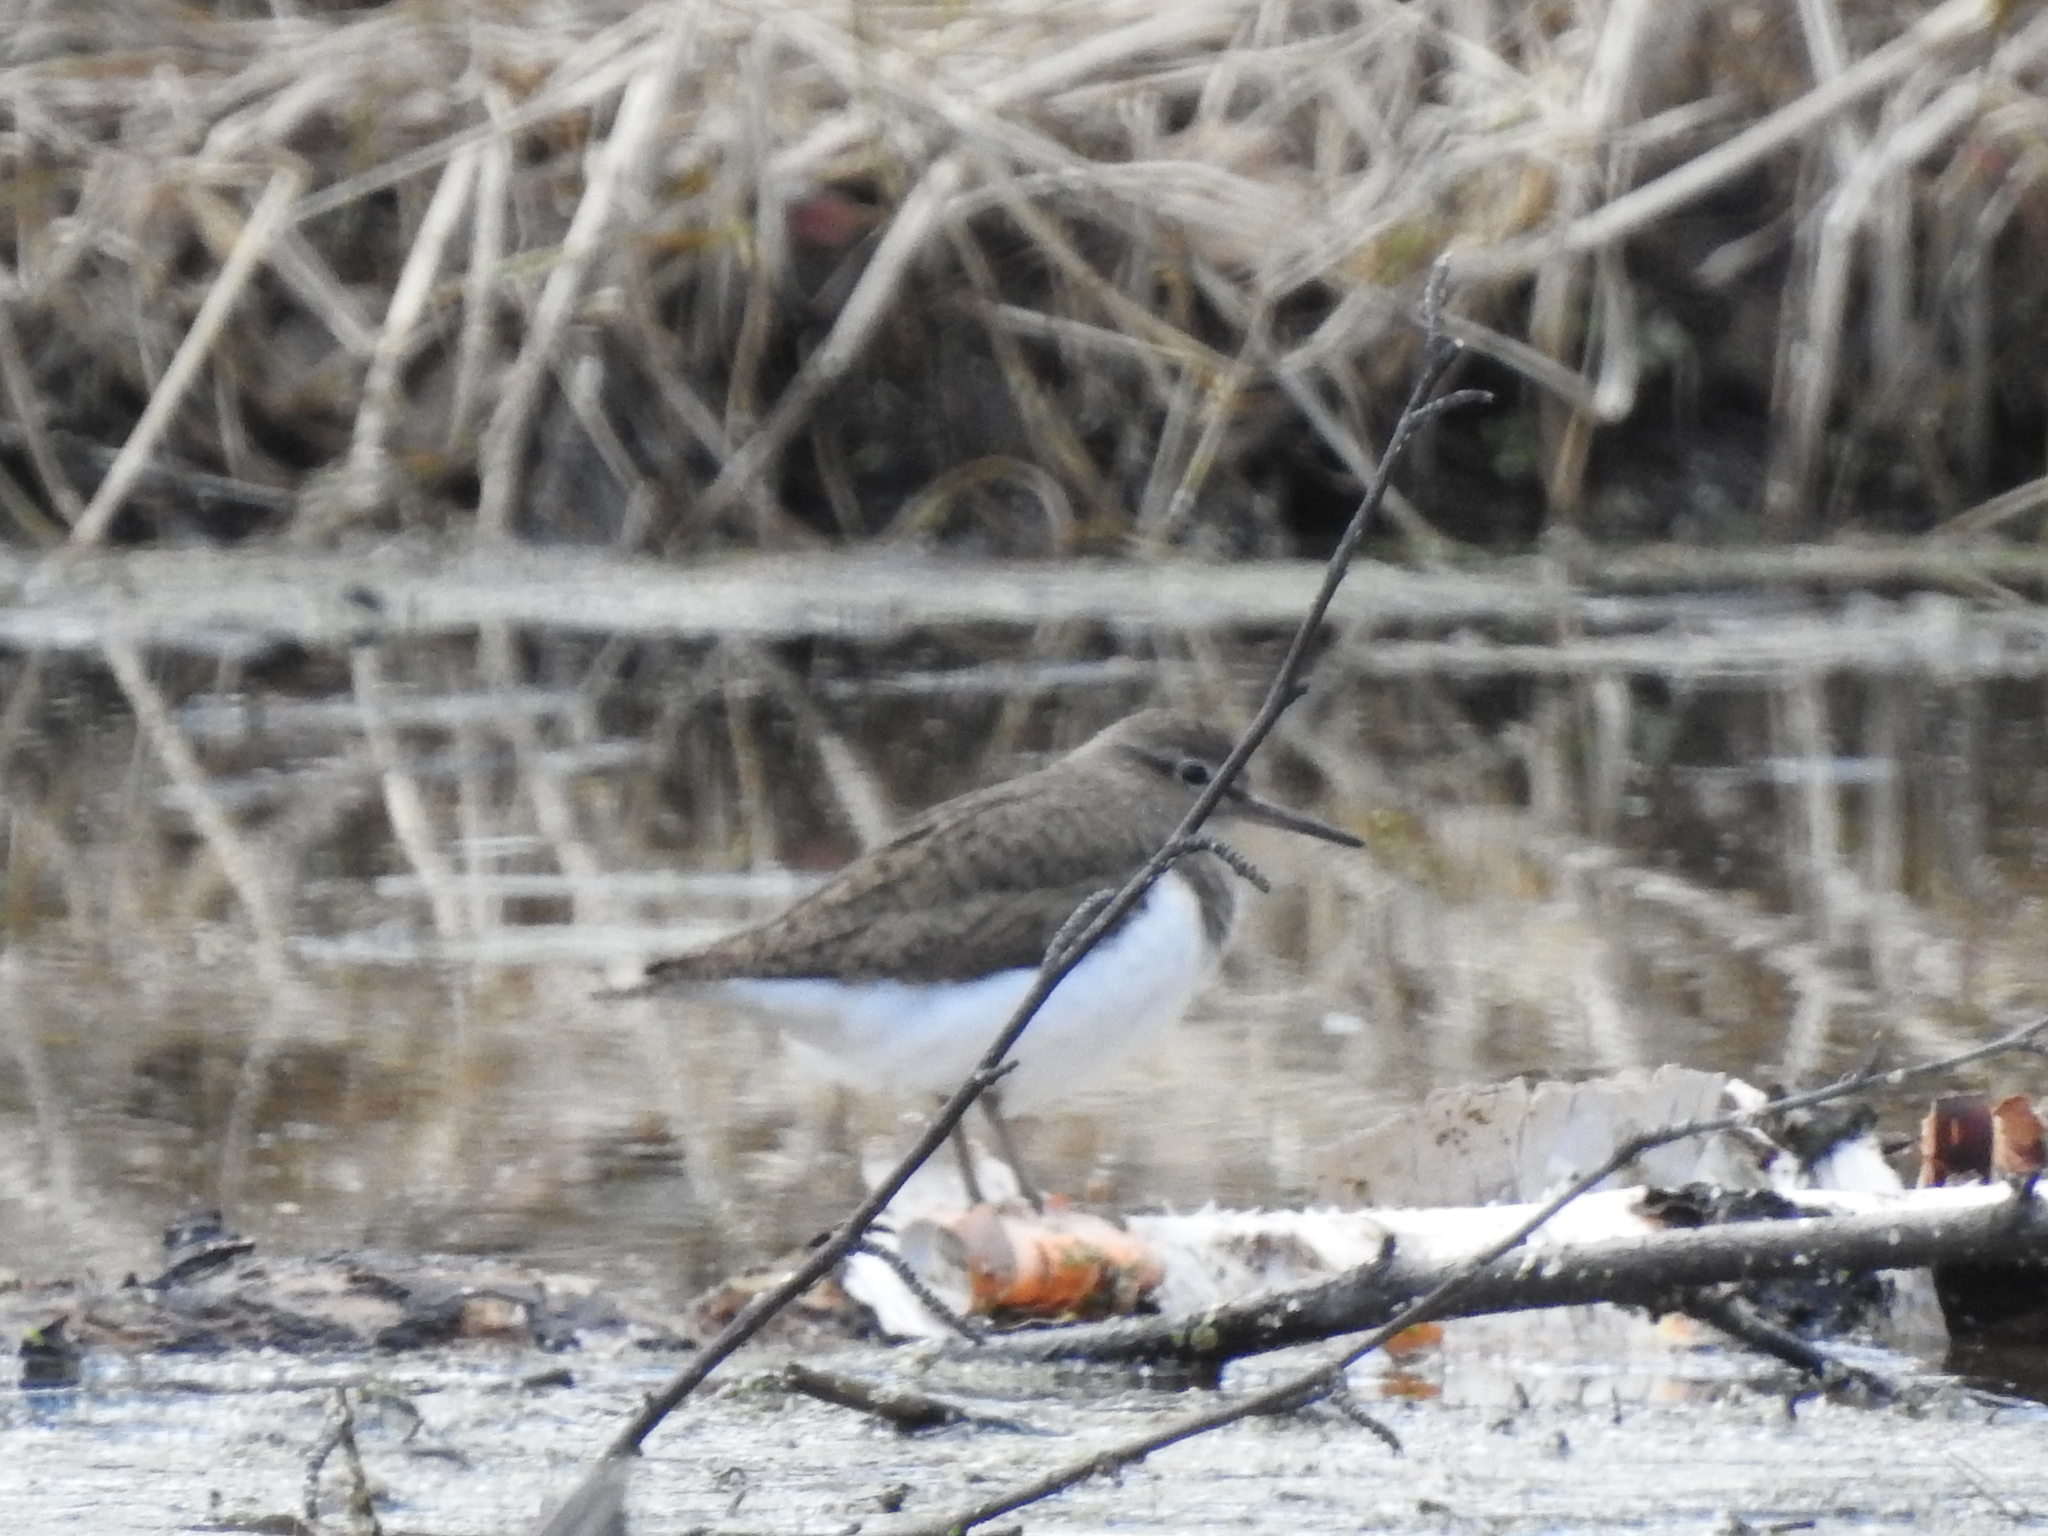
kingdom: Animalia
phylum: Chordata
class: Aves
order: Charadriiformes
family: Scolopacidae
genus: Actitis
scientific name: Actitis hypoleucos
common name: Common sandpiper
